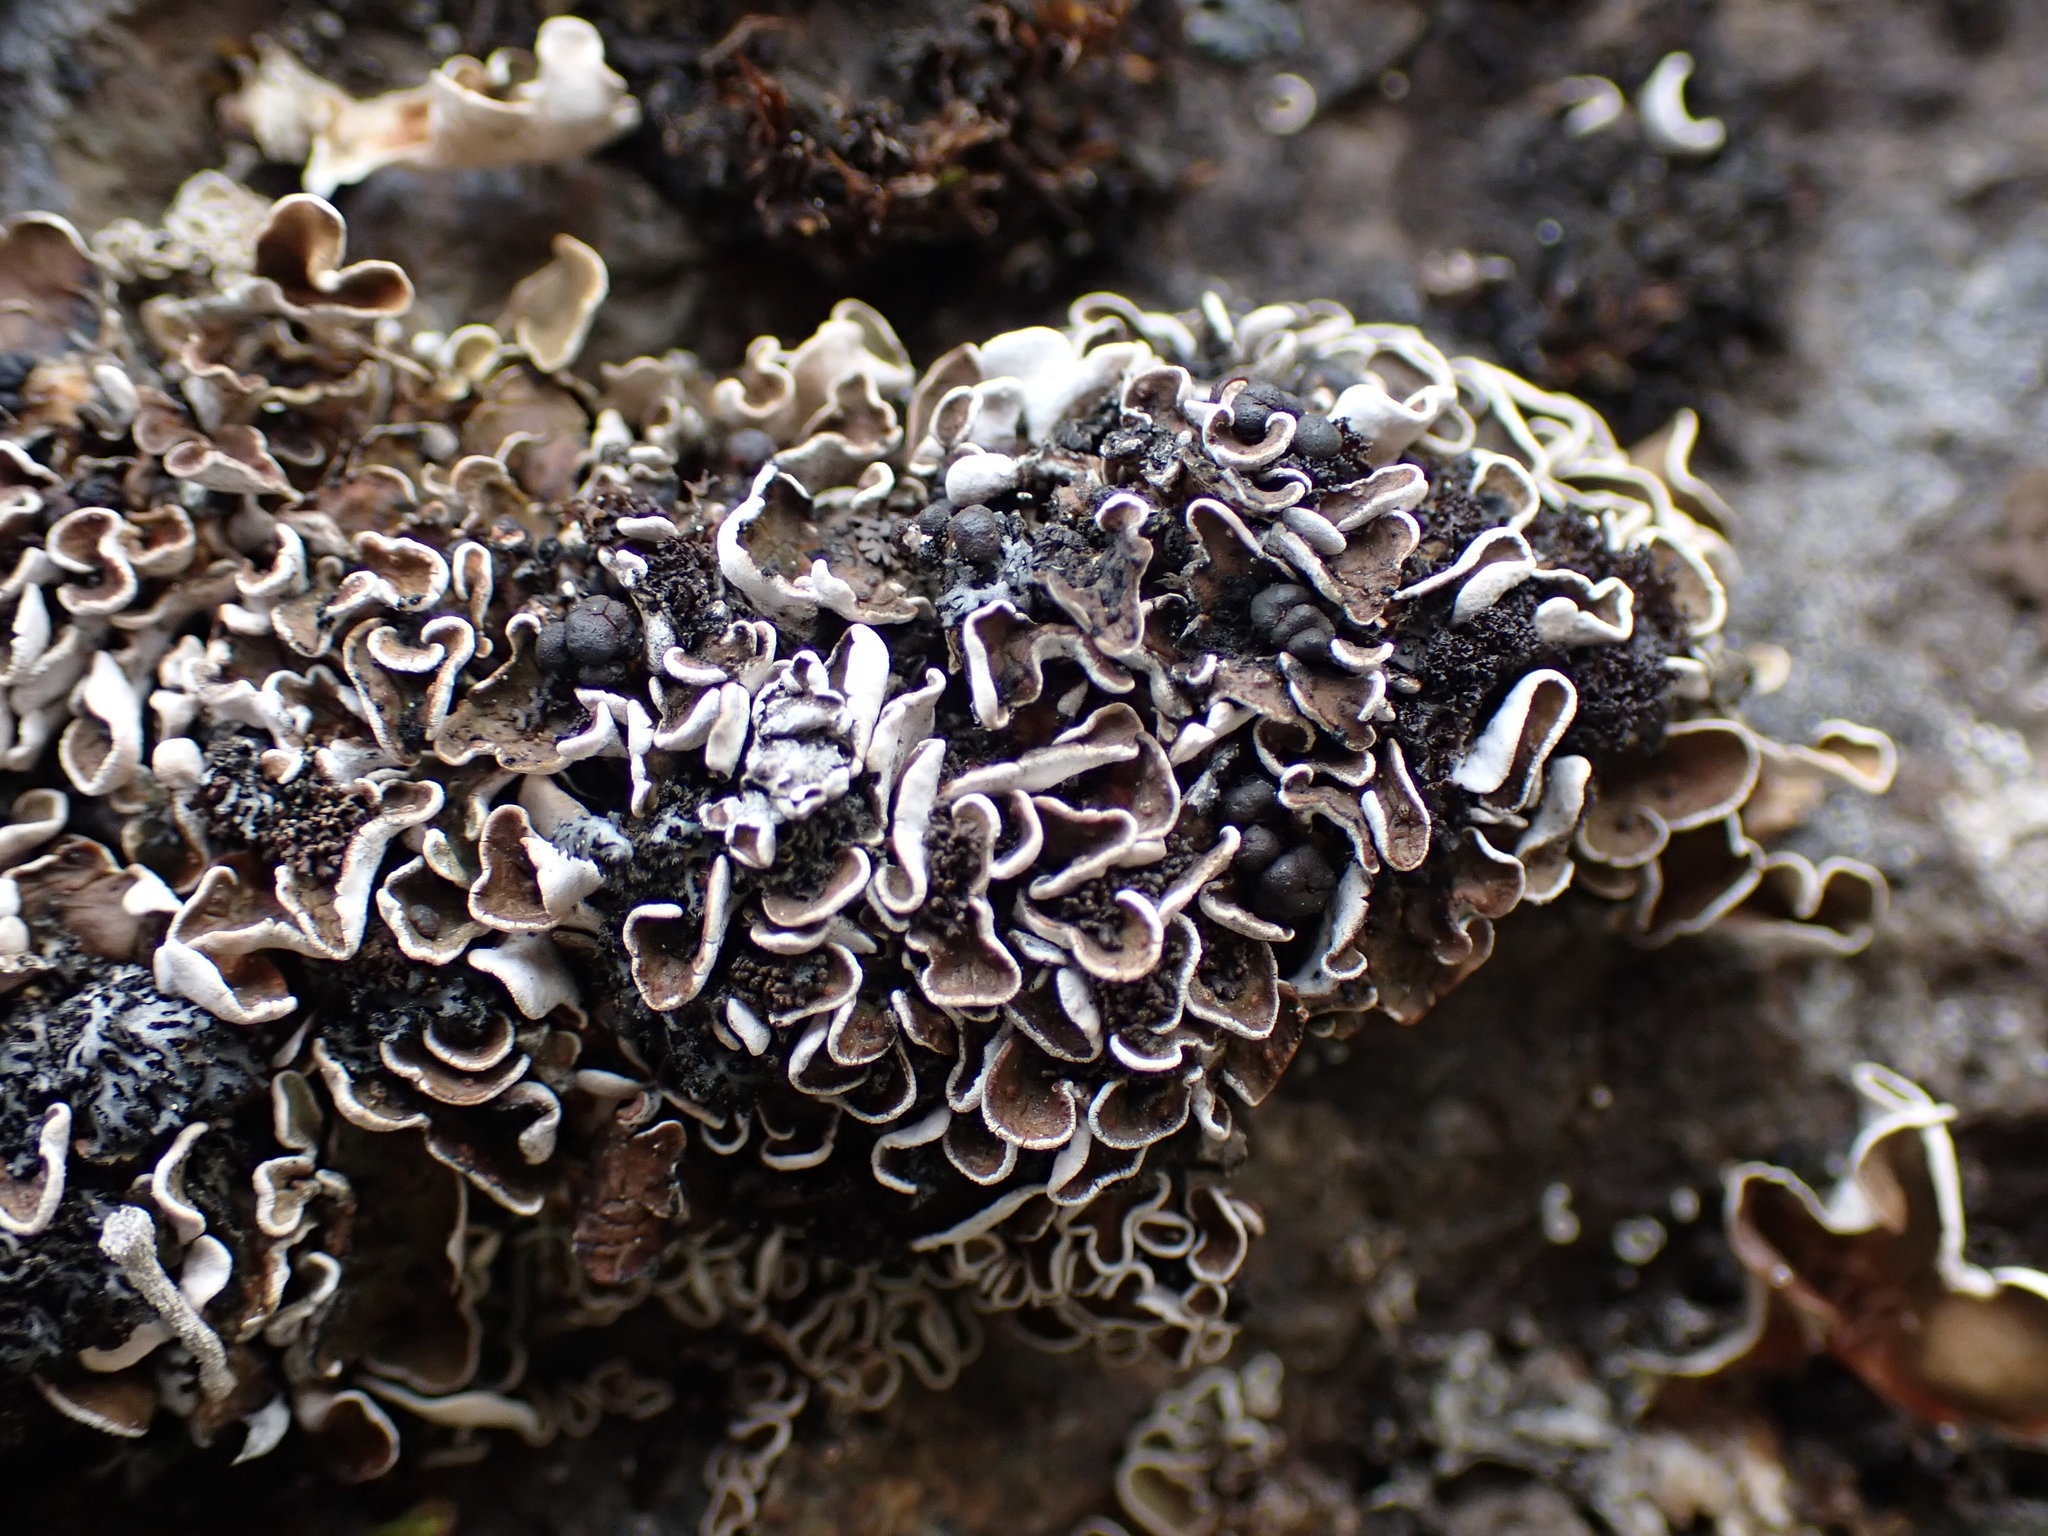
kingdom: Fungi
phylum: Ascomycota
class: Lecanoromycetes
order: Lecanorales
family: Psoraceae
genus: Psora
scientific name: Psora nipponica
